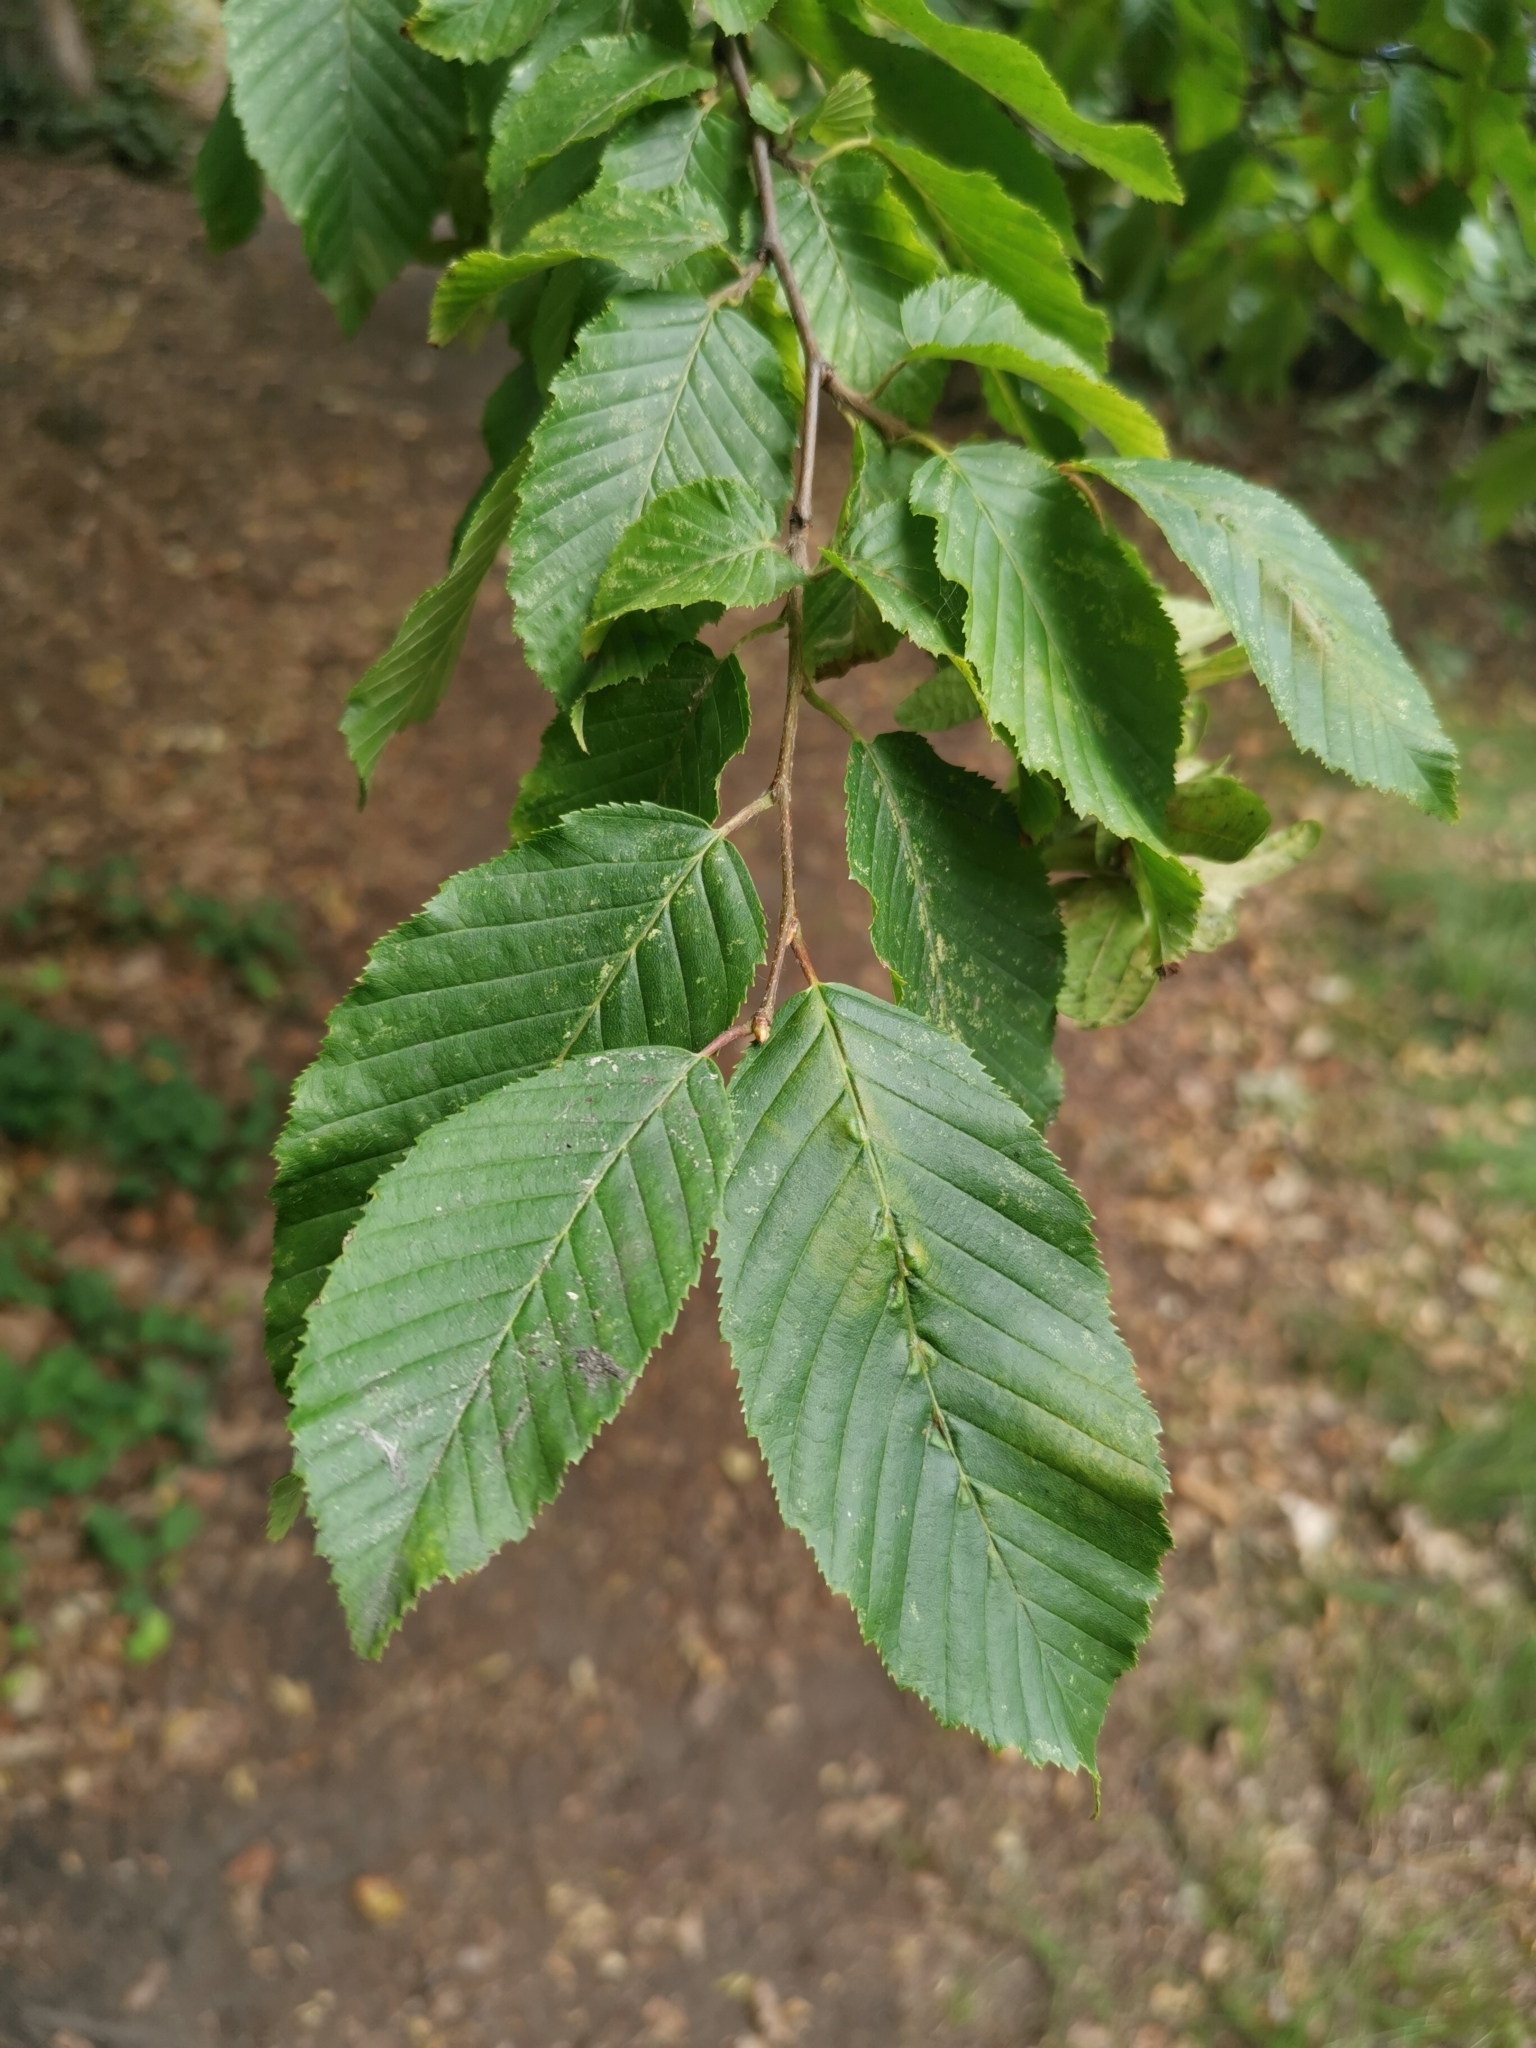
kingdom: Plantae
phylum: Tracheophyta
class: Magnoliopsida
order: Fagales
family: Betulaceae
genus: Carpinus
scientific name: Carpinus betulus
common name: Hornbeam
